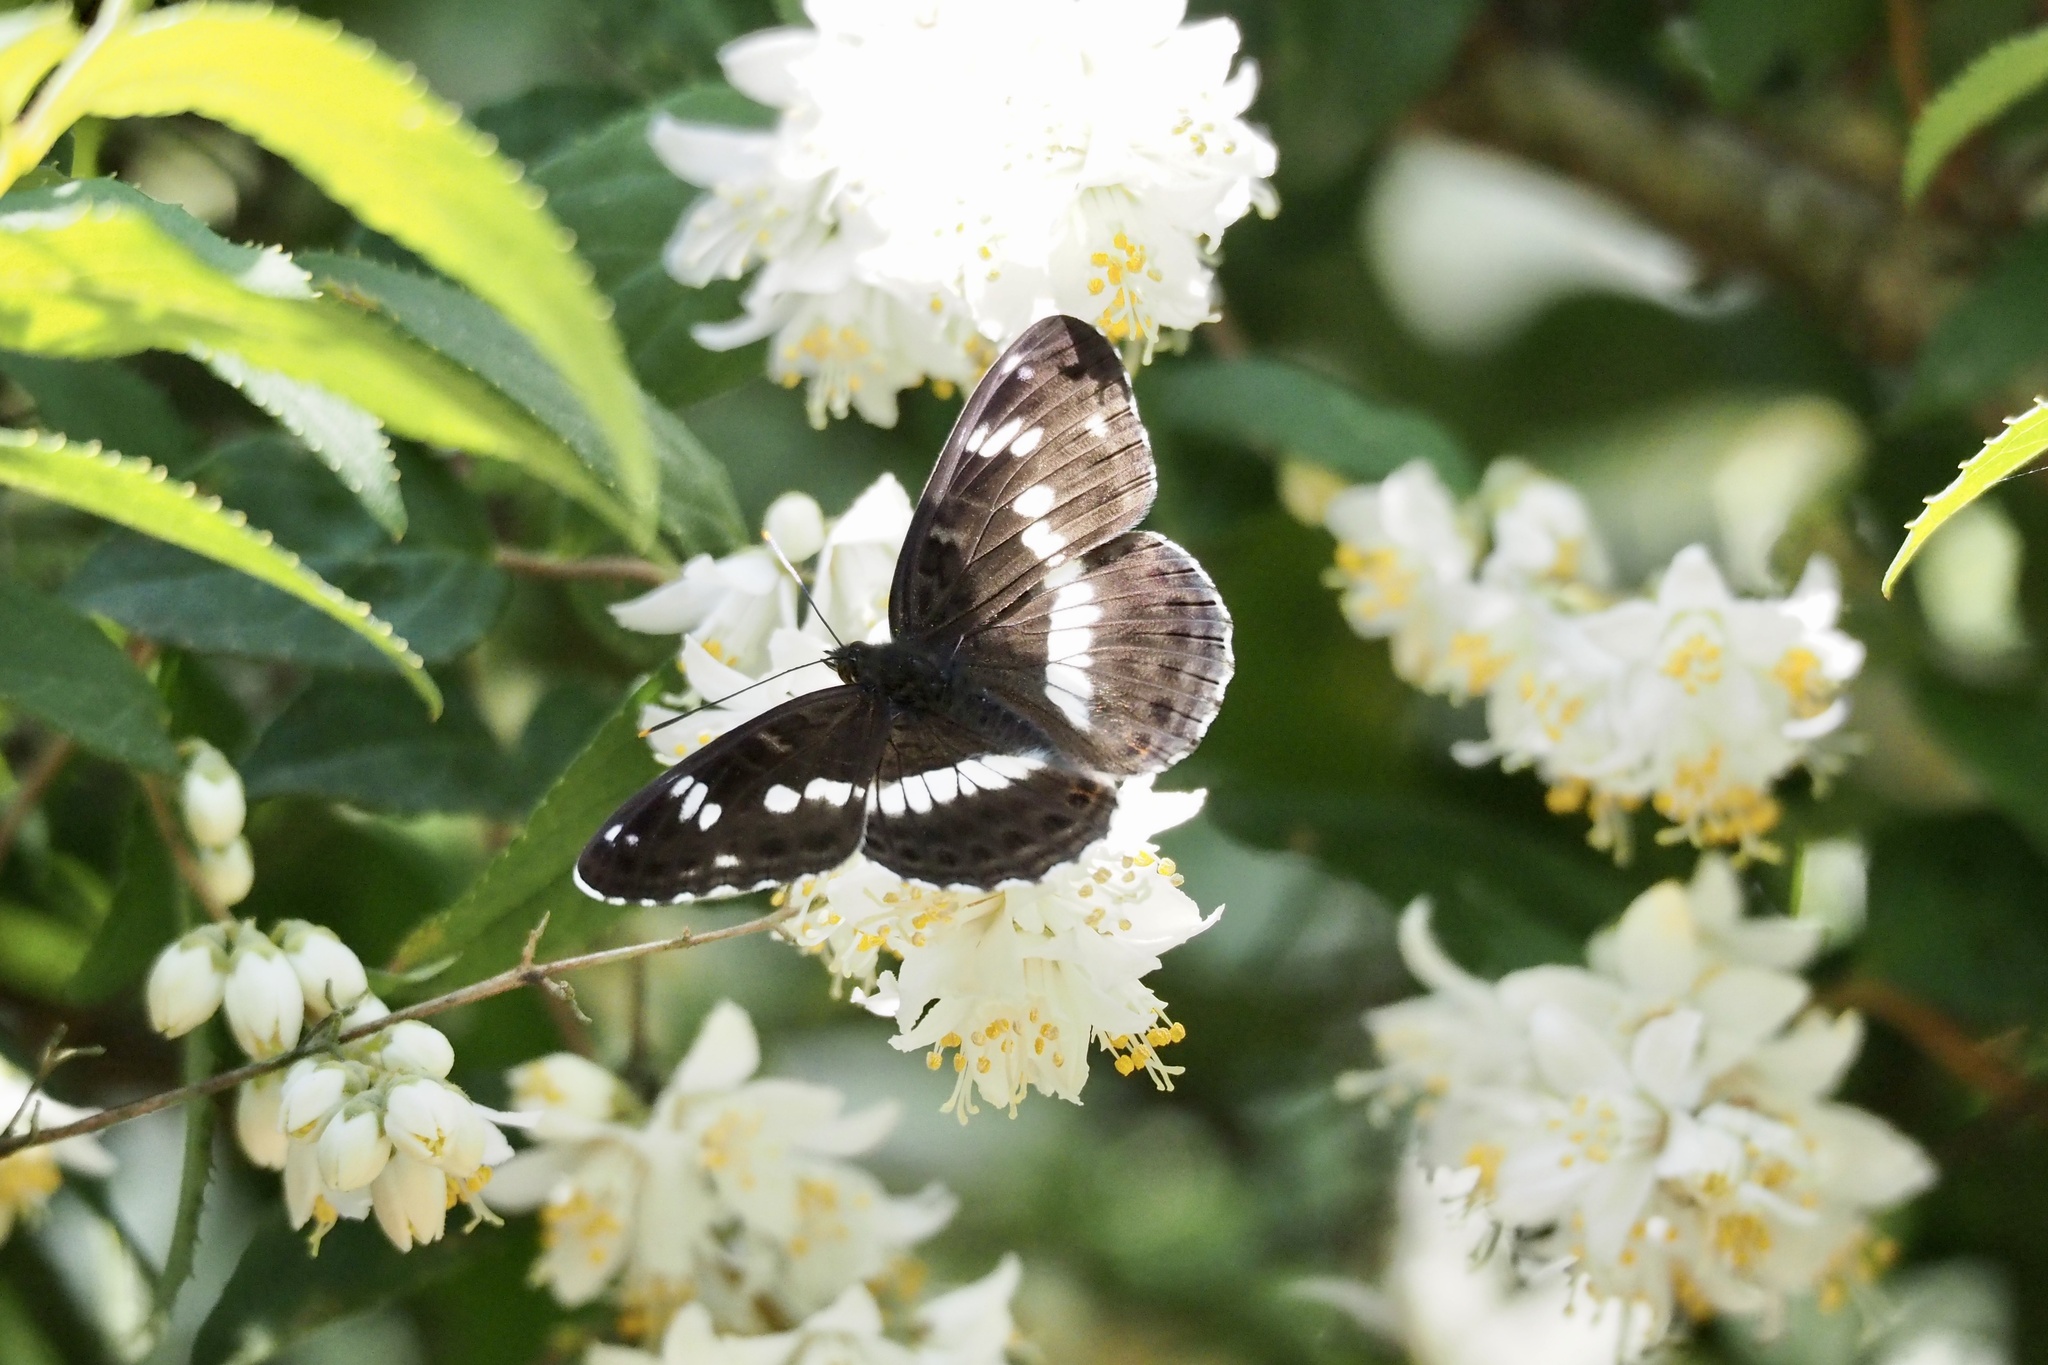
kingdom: Animalia
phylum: Arthropoda
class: Insecta
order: Lepidoptera
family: Nymphalidae
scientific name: Nymphalidae
